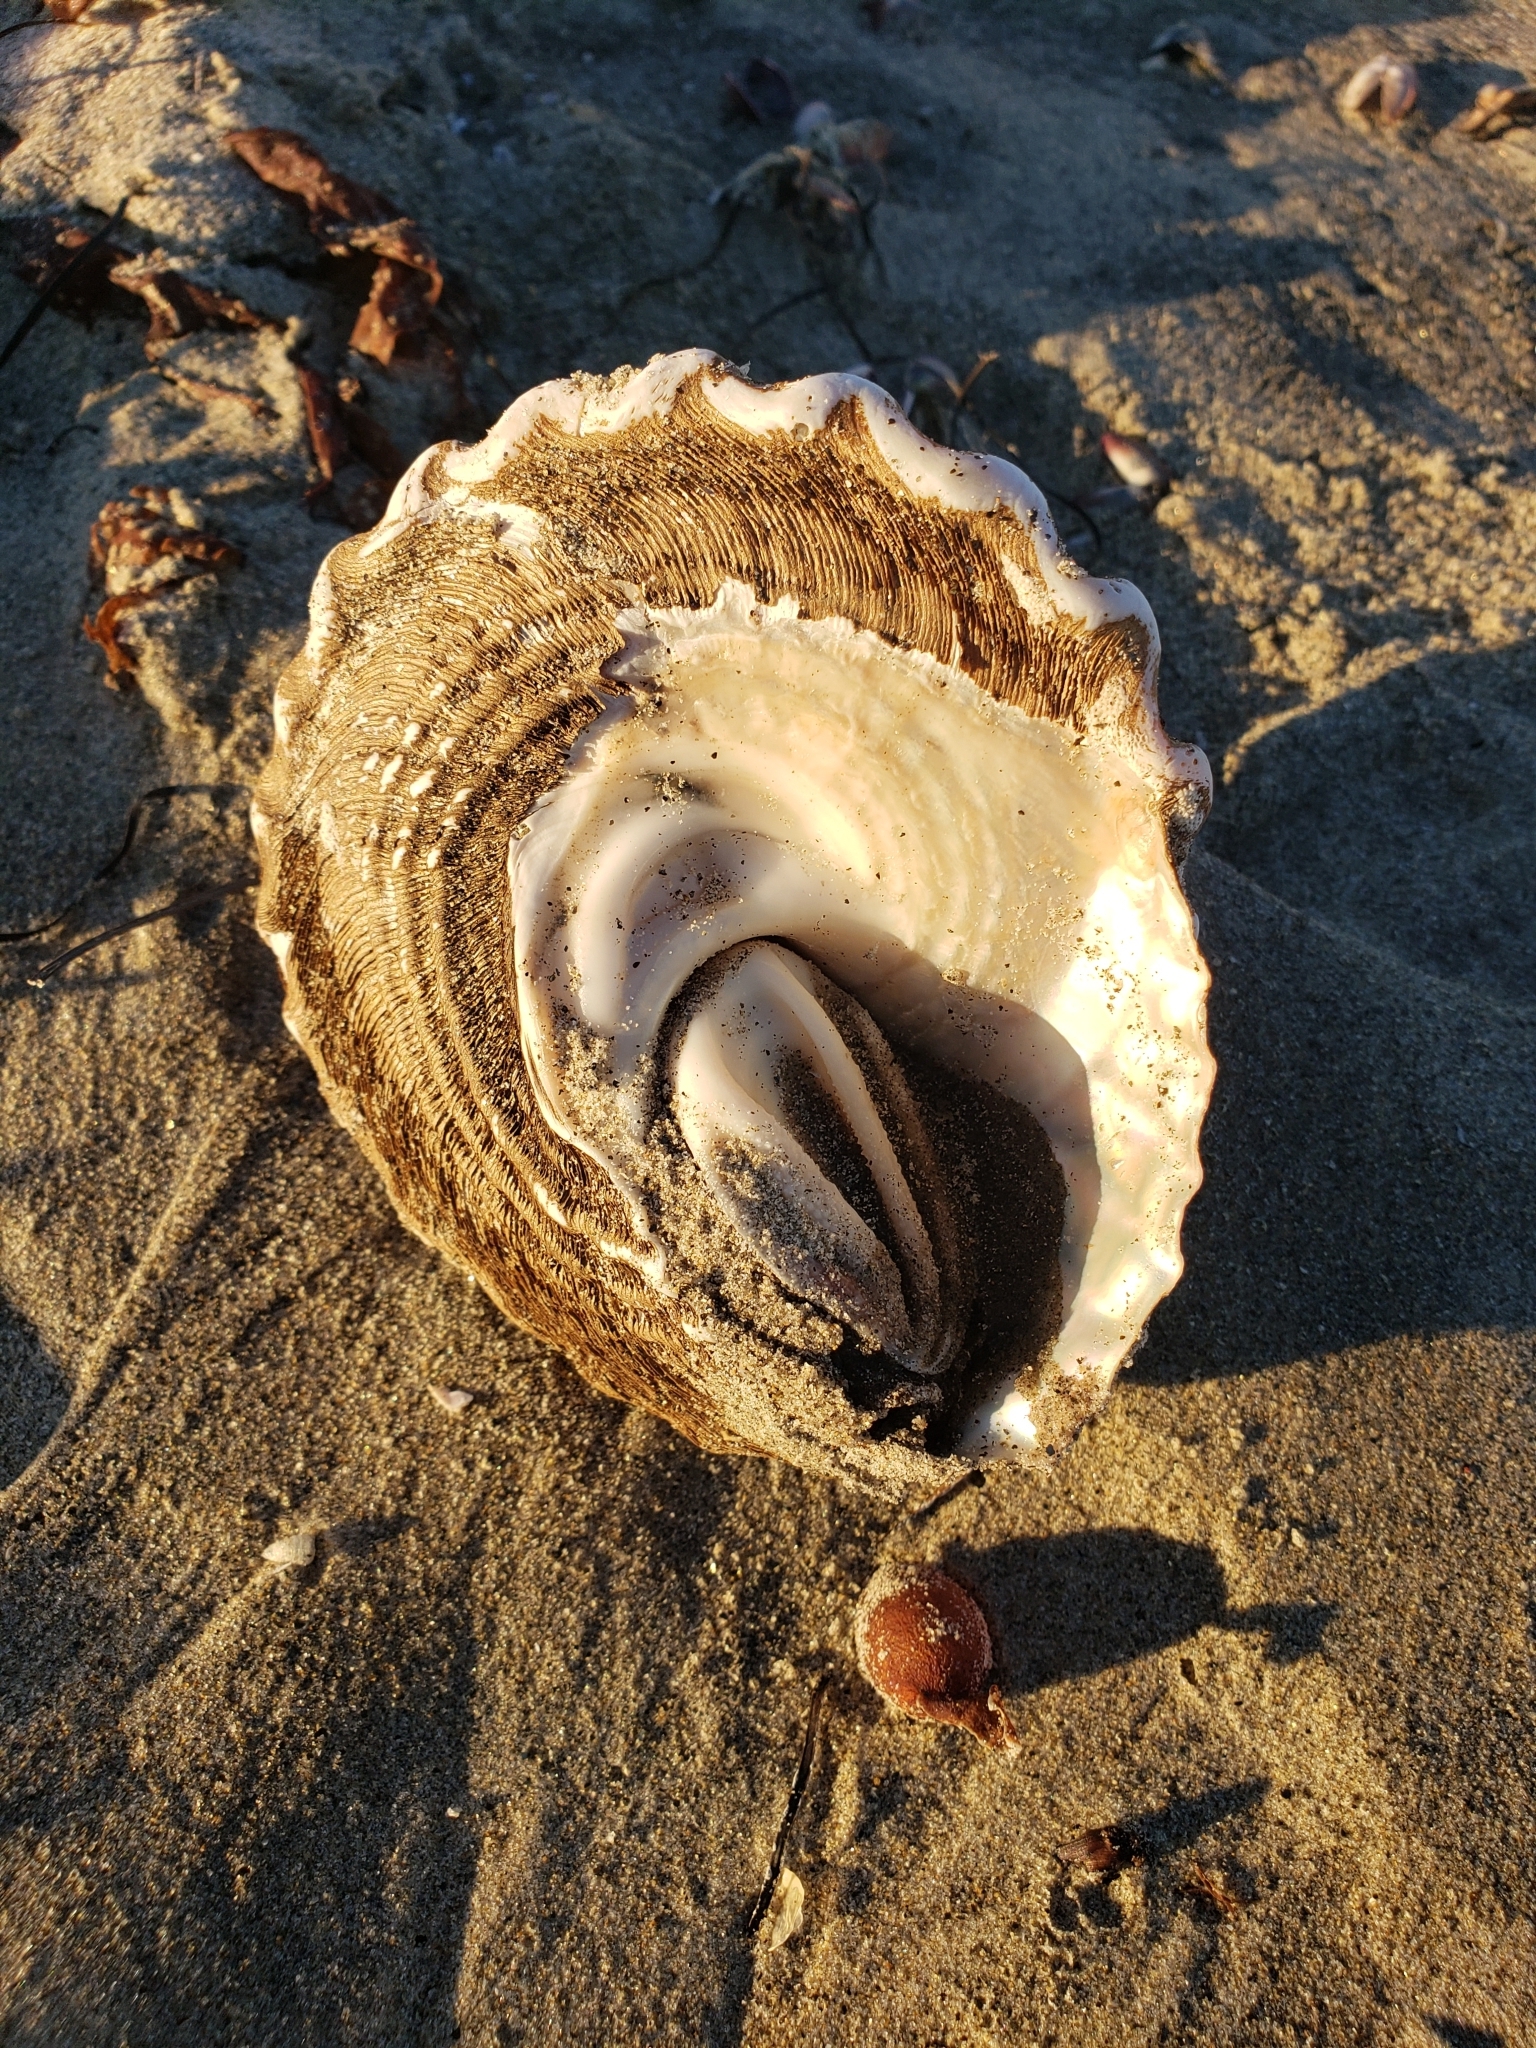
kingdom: Animalia
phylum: Mollusca
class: Gastropoda
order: Trochida
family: Turbinidae
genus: Megastraea
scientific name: Megastraea undosa
